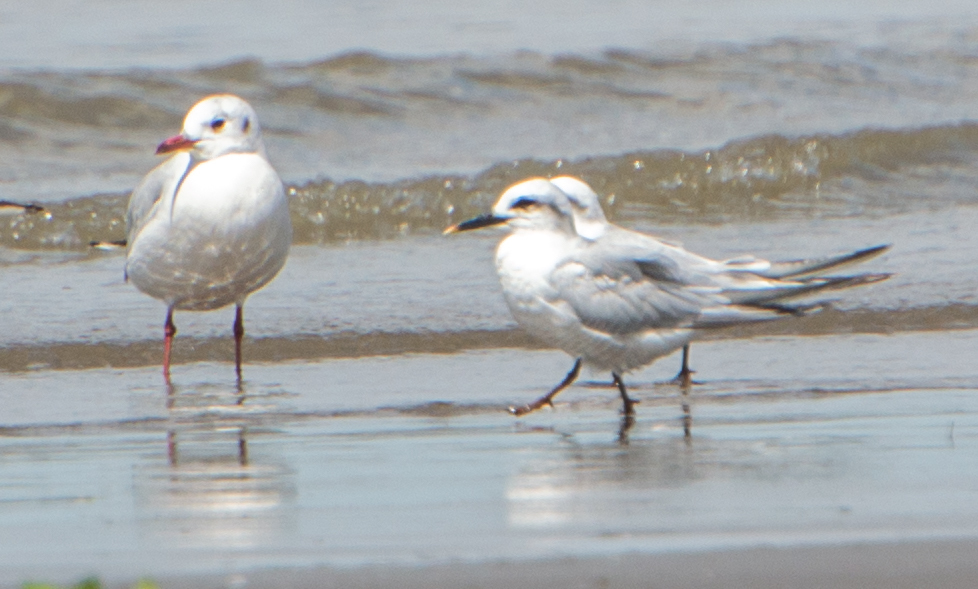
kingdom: Animalia
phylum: Chordata
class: Aves
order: Charadriiformes
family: Laridae
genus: Sterna
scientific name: Sterna trudeaui
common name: Snowy-crowned tern
